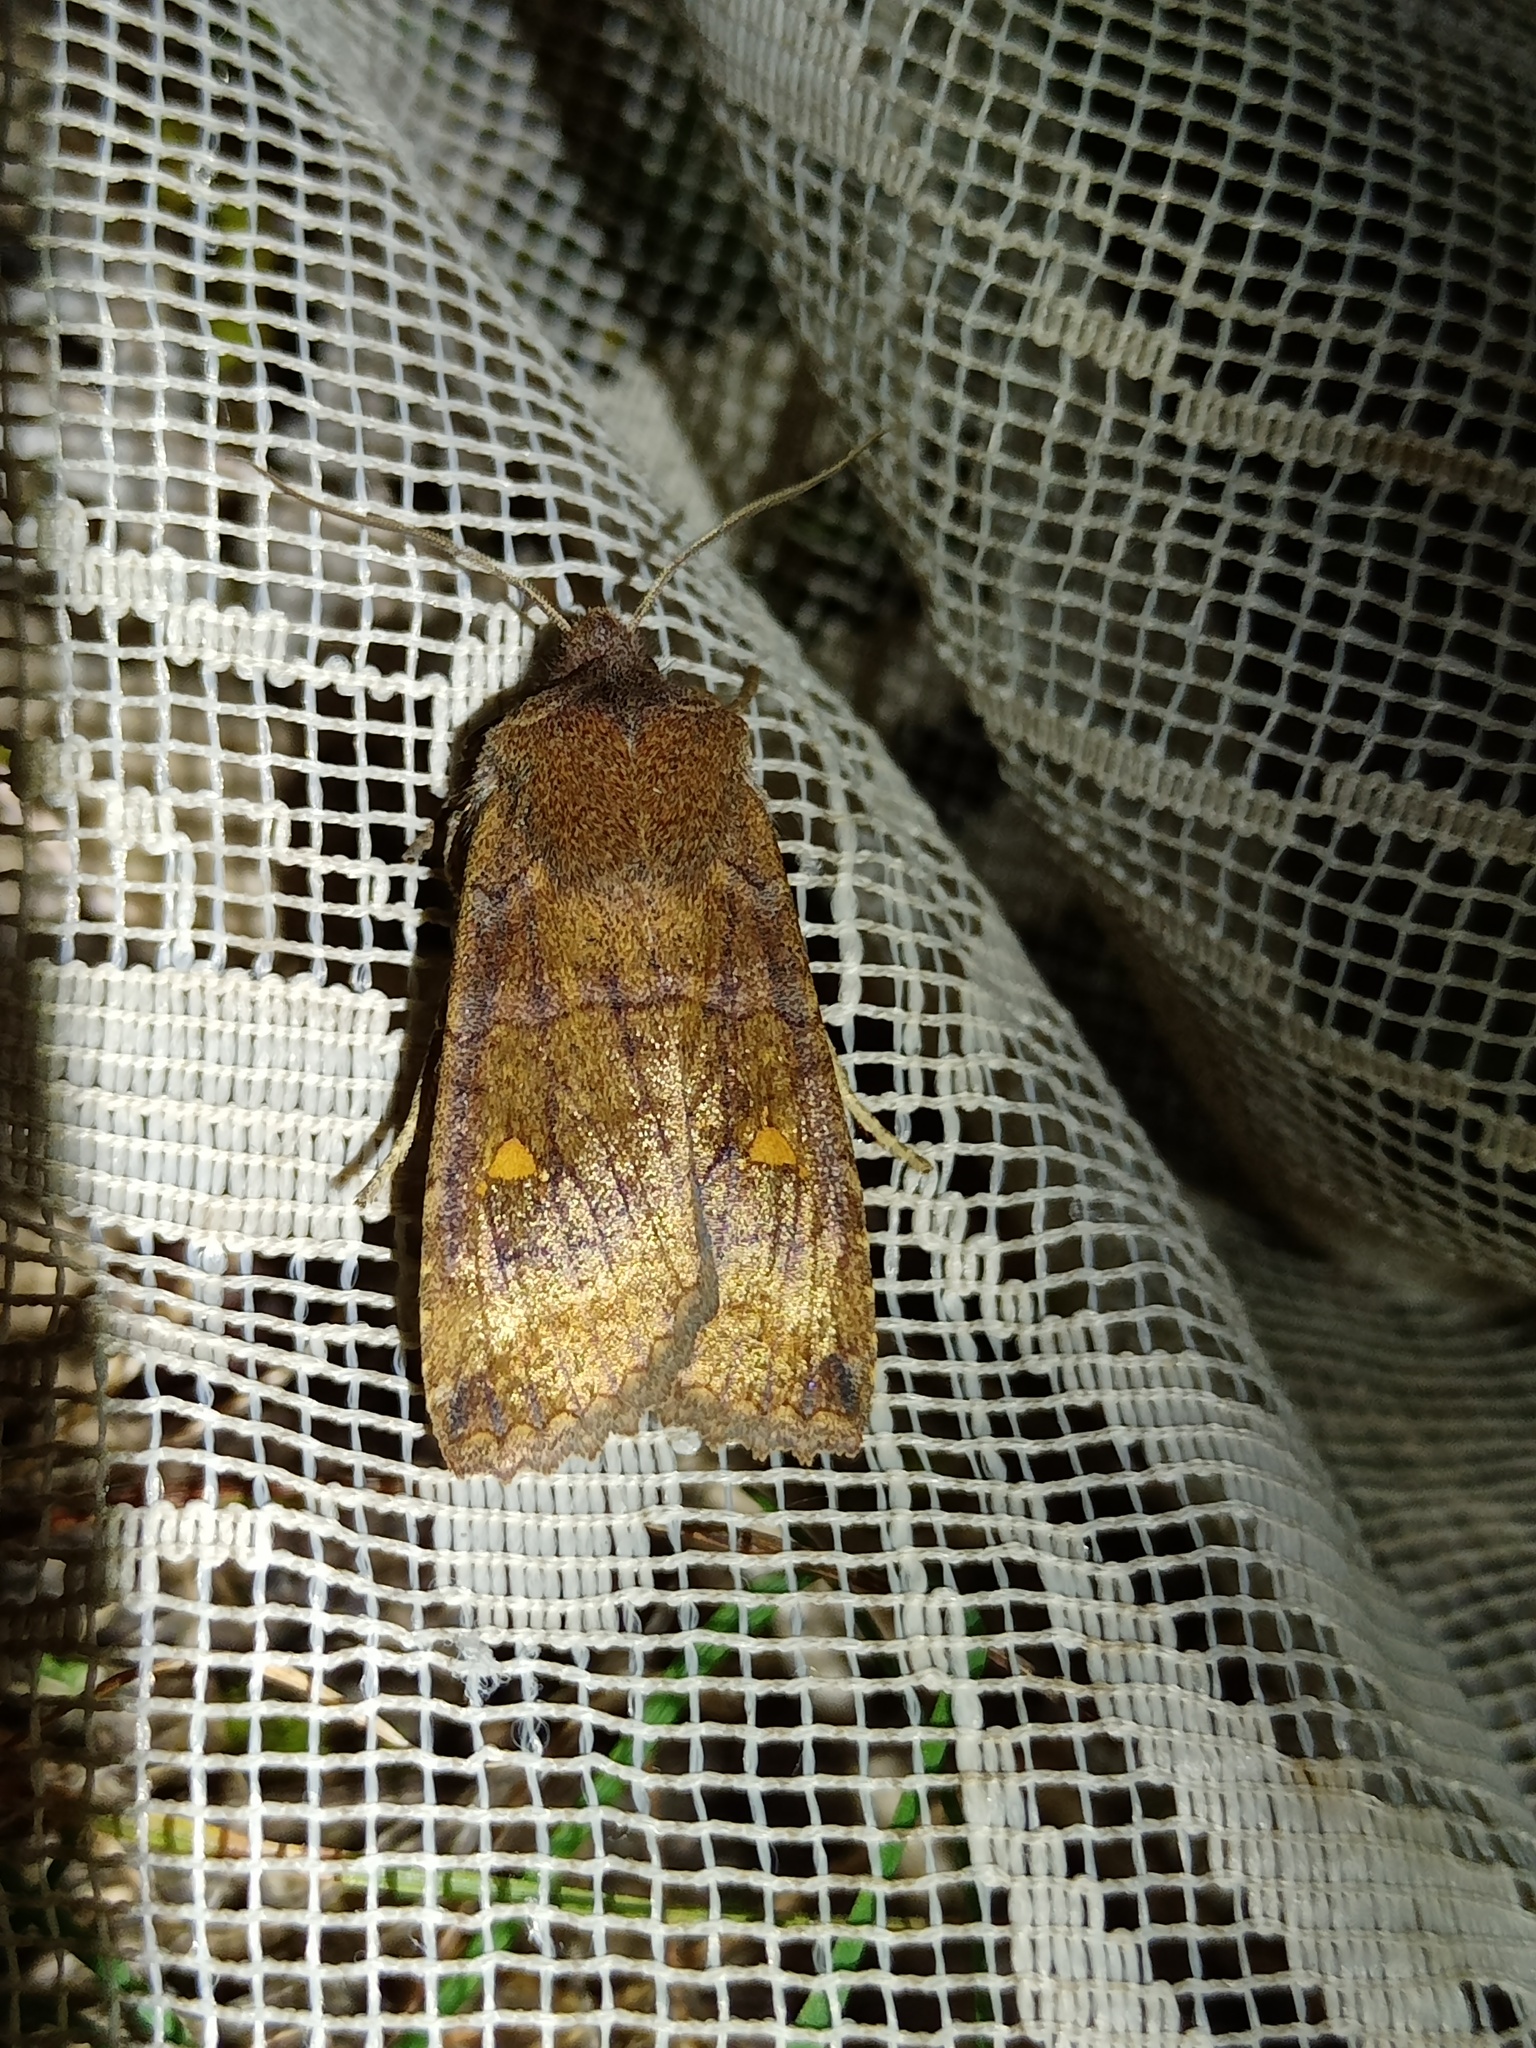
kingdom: Animalia
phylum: Arthropoda
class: Insecta
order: Lepidoptera
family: Noctuidae
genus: Eupsilia
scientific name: Eupsilia transversa
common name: Satellite
